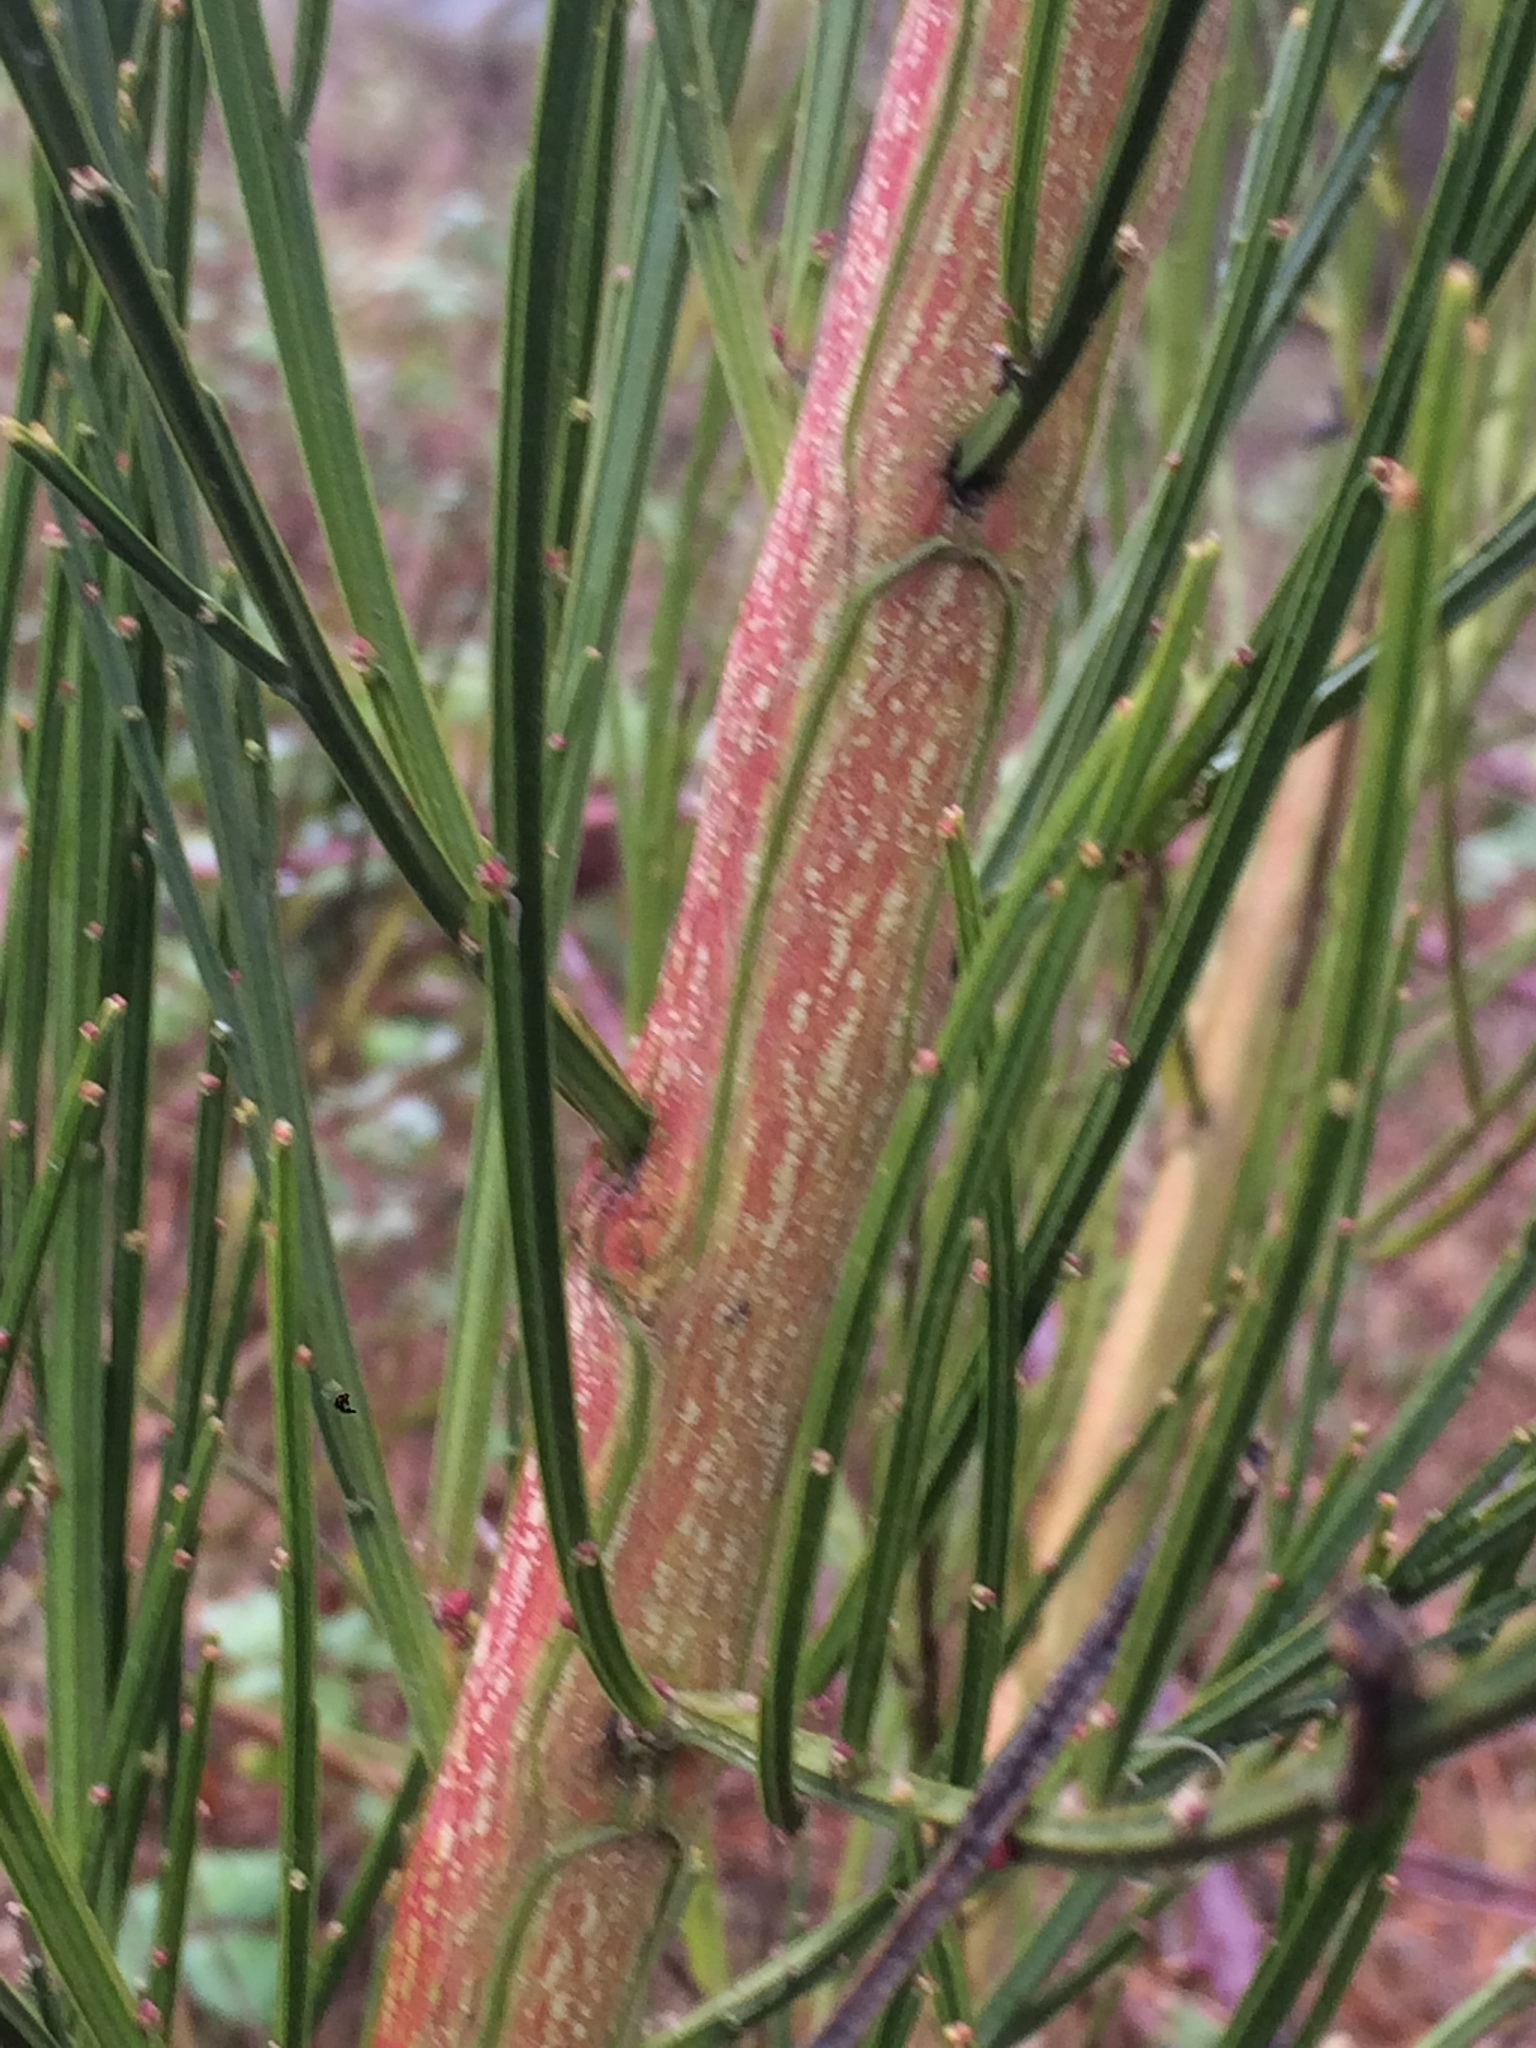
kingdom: Plantae
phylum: Tracheophyta
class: Magnoliopsida
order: Fabales
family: Fabaceae
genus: Cytisus
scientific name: Cytisus scoparius
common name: Scotch broom
